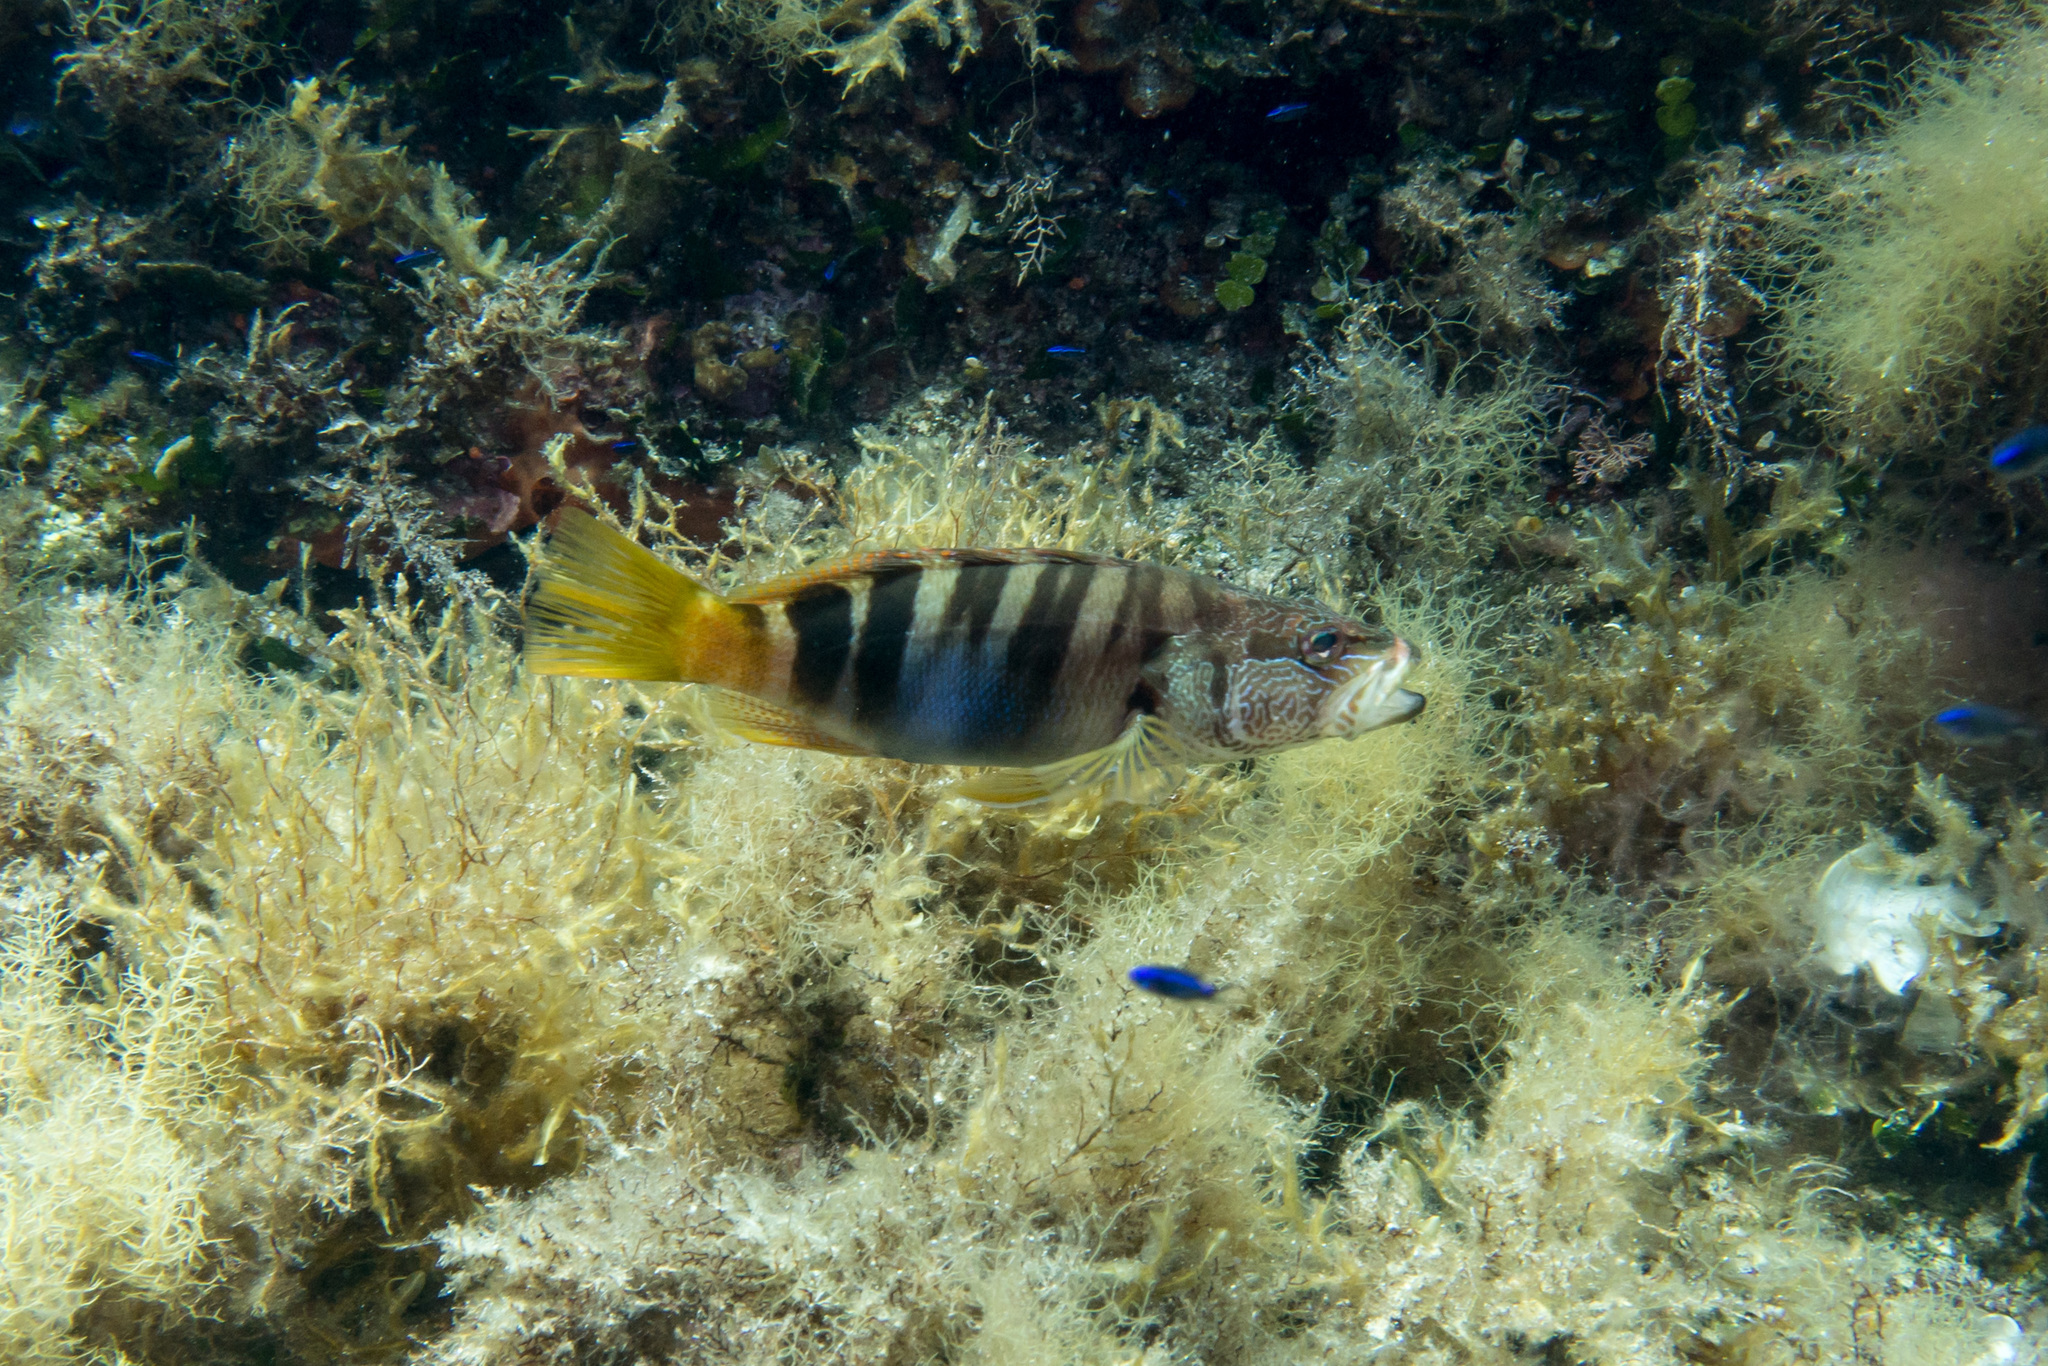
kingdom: Animalia
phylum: Chordata
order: Perciformes
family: Serranidae
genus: Serranus
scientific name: Serranus scriba
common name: Painted comber
